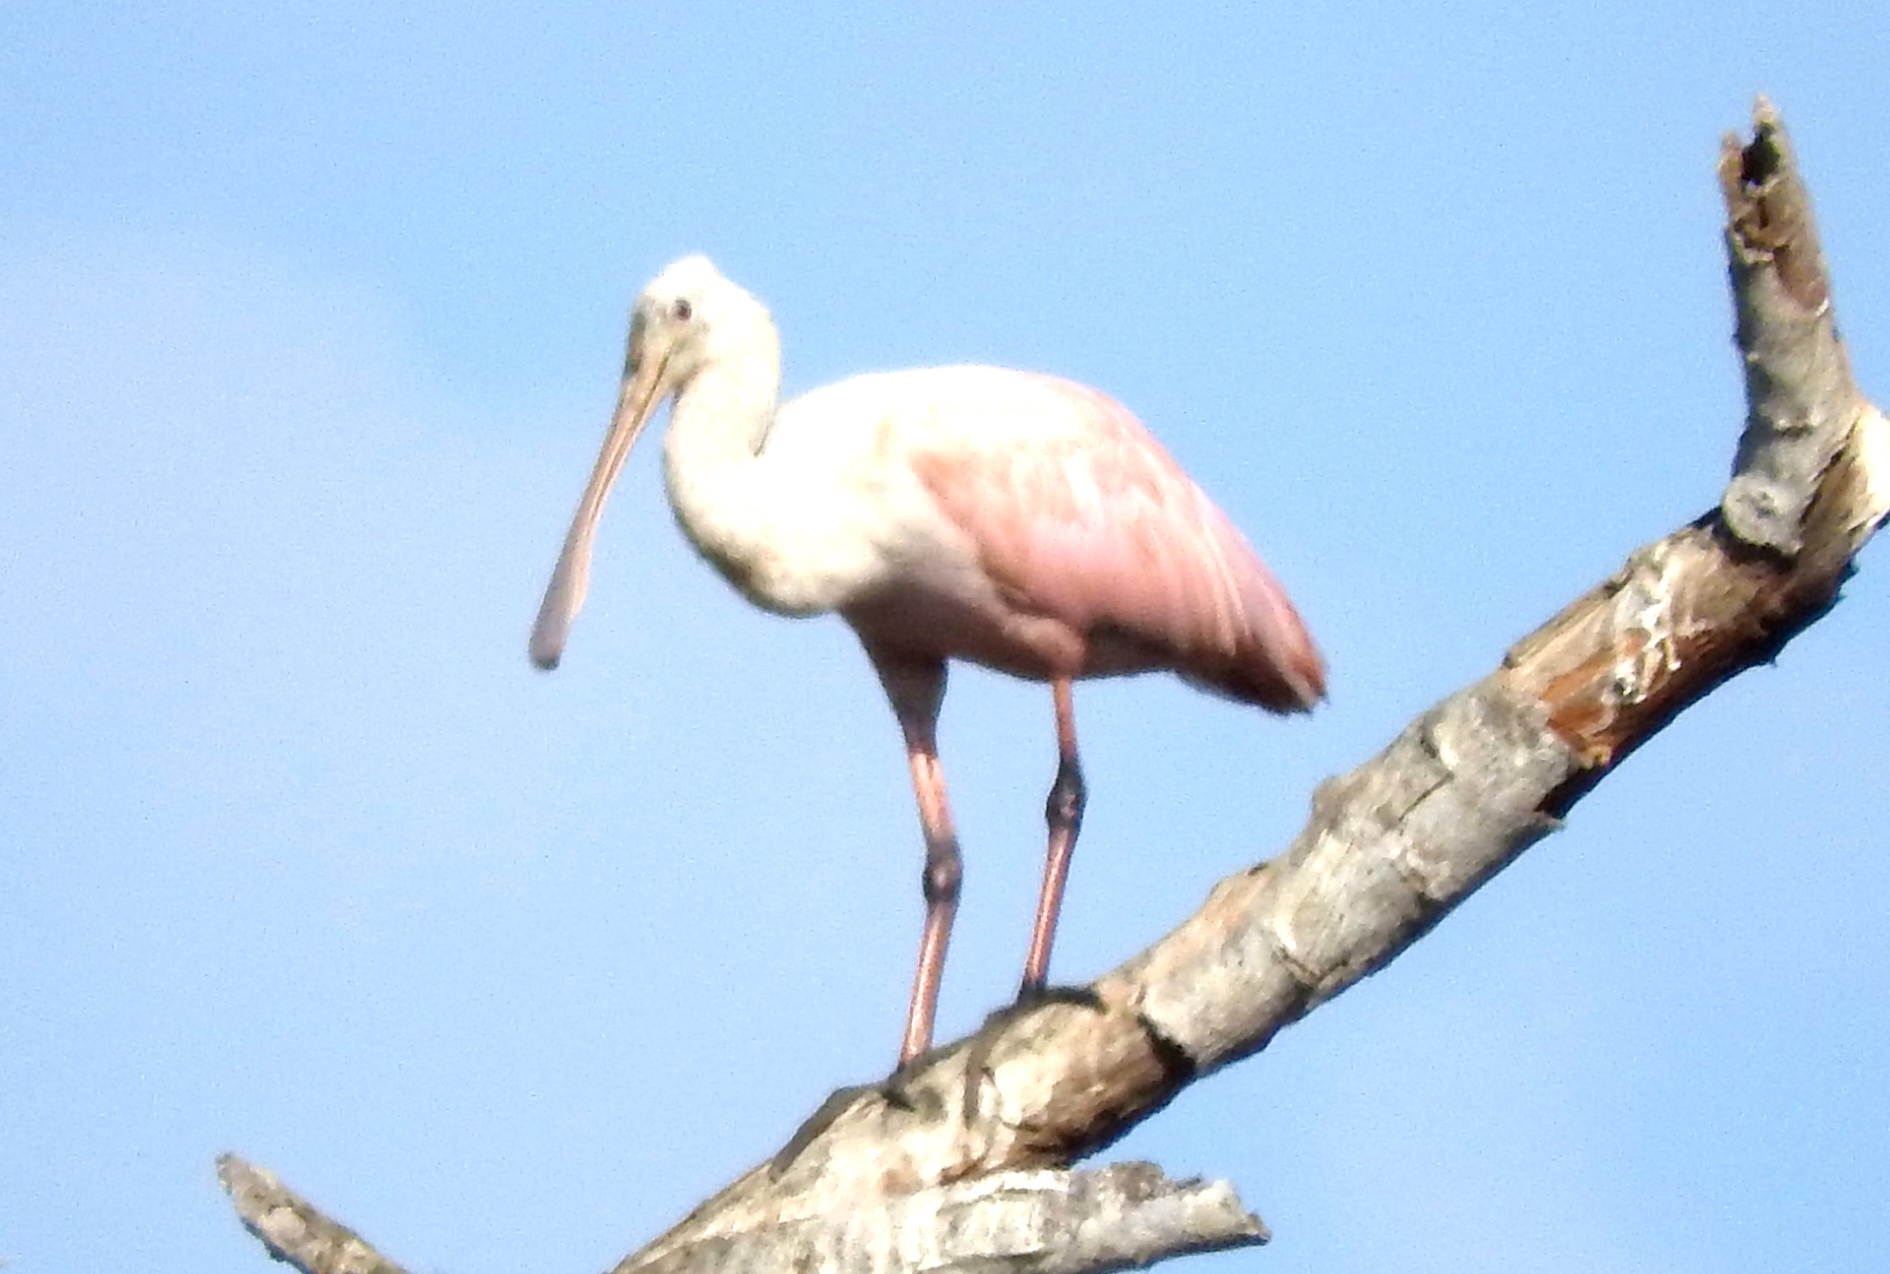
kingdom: Animalia
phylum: Chordata
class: Aves
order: Pelecaniformes
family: Threskiornithidae
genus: Platalea
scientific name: Platalea ajaja
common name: Roseate spoonbill
